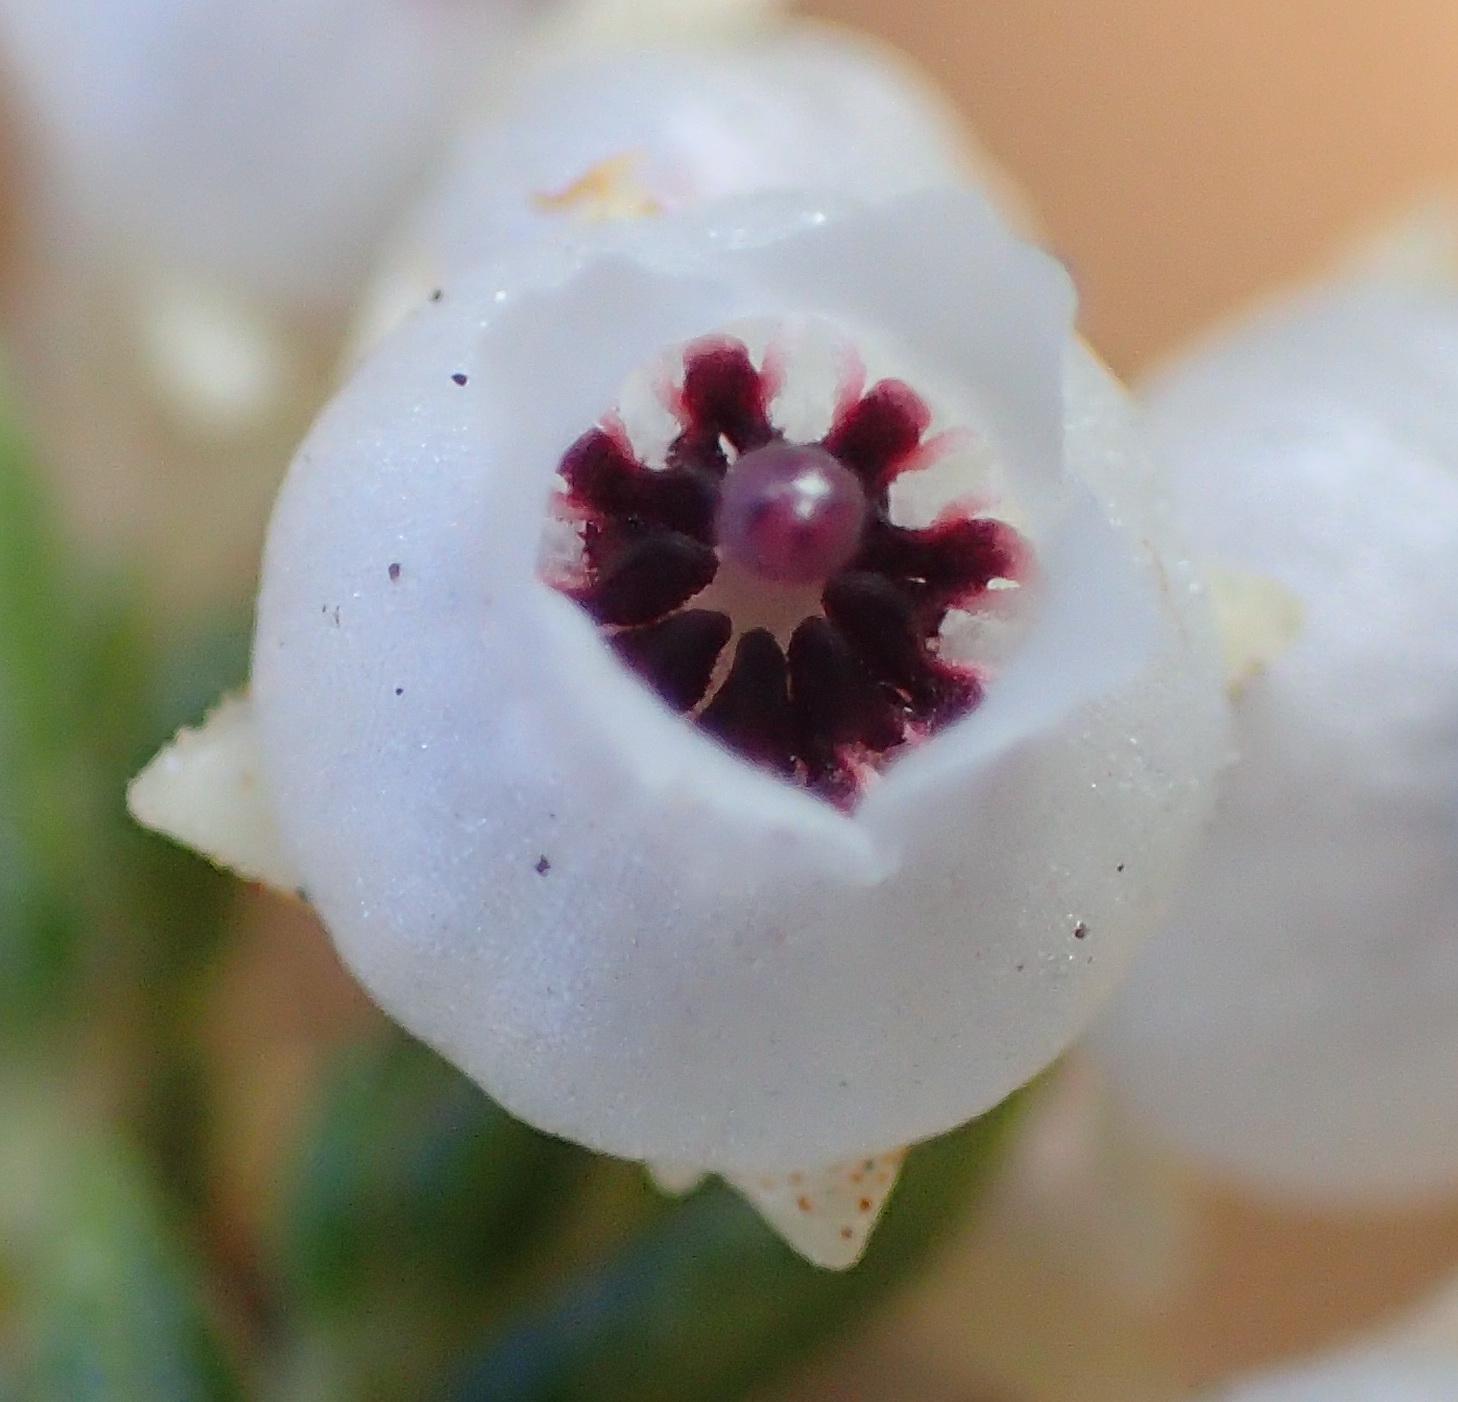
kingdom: Plantae
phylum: Tracheophyta
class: Magnoliopsida
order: Ericales
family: Ericaceae
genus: Erica
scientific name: Erica syngenesia
